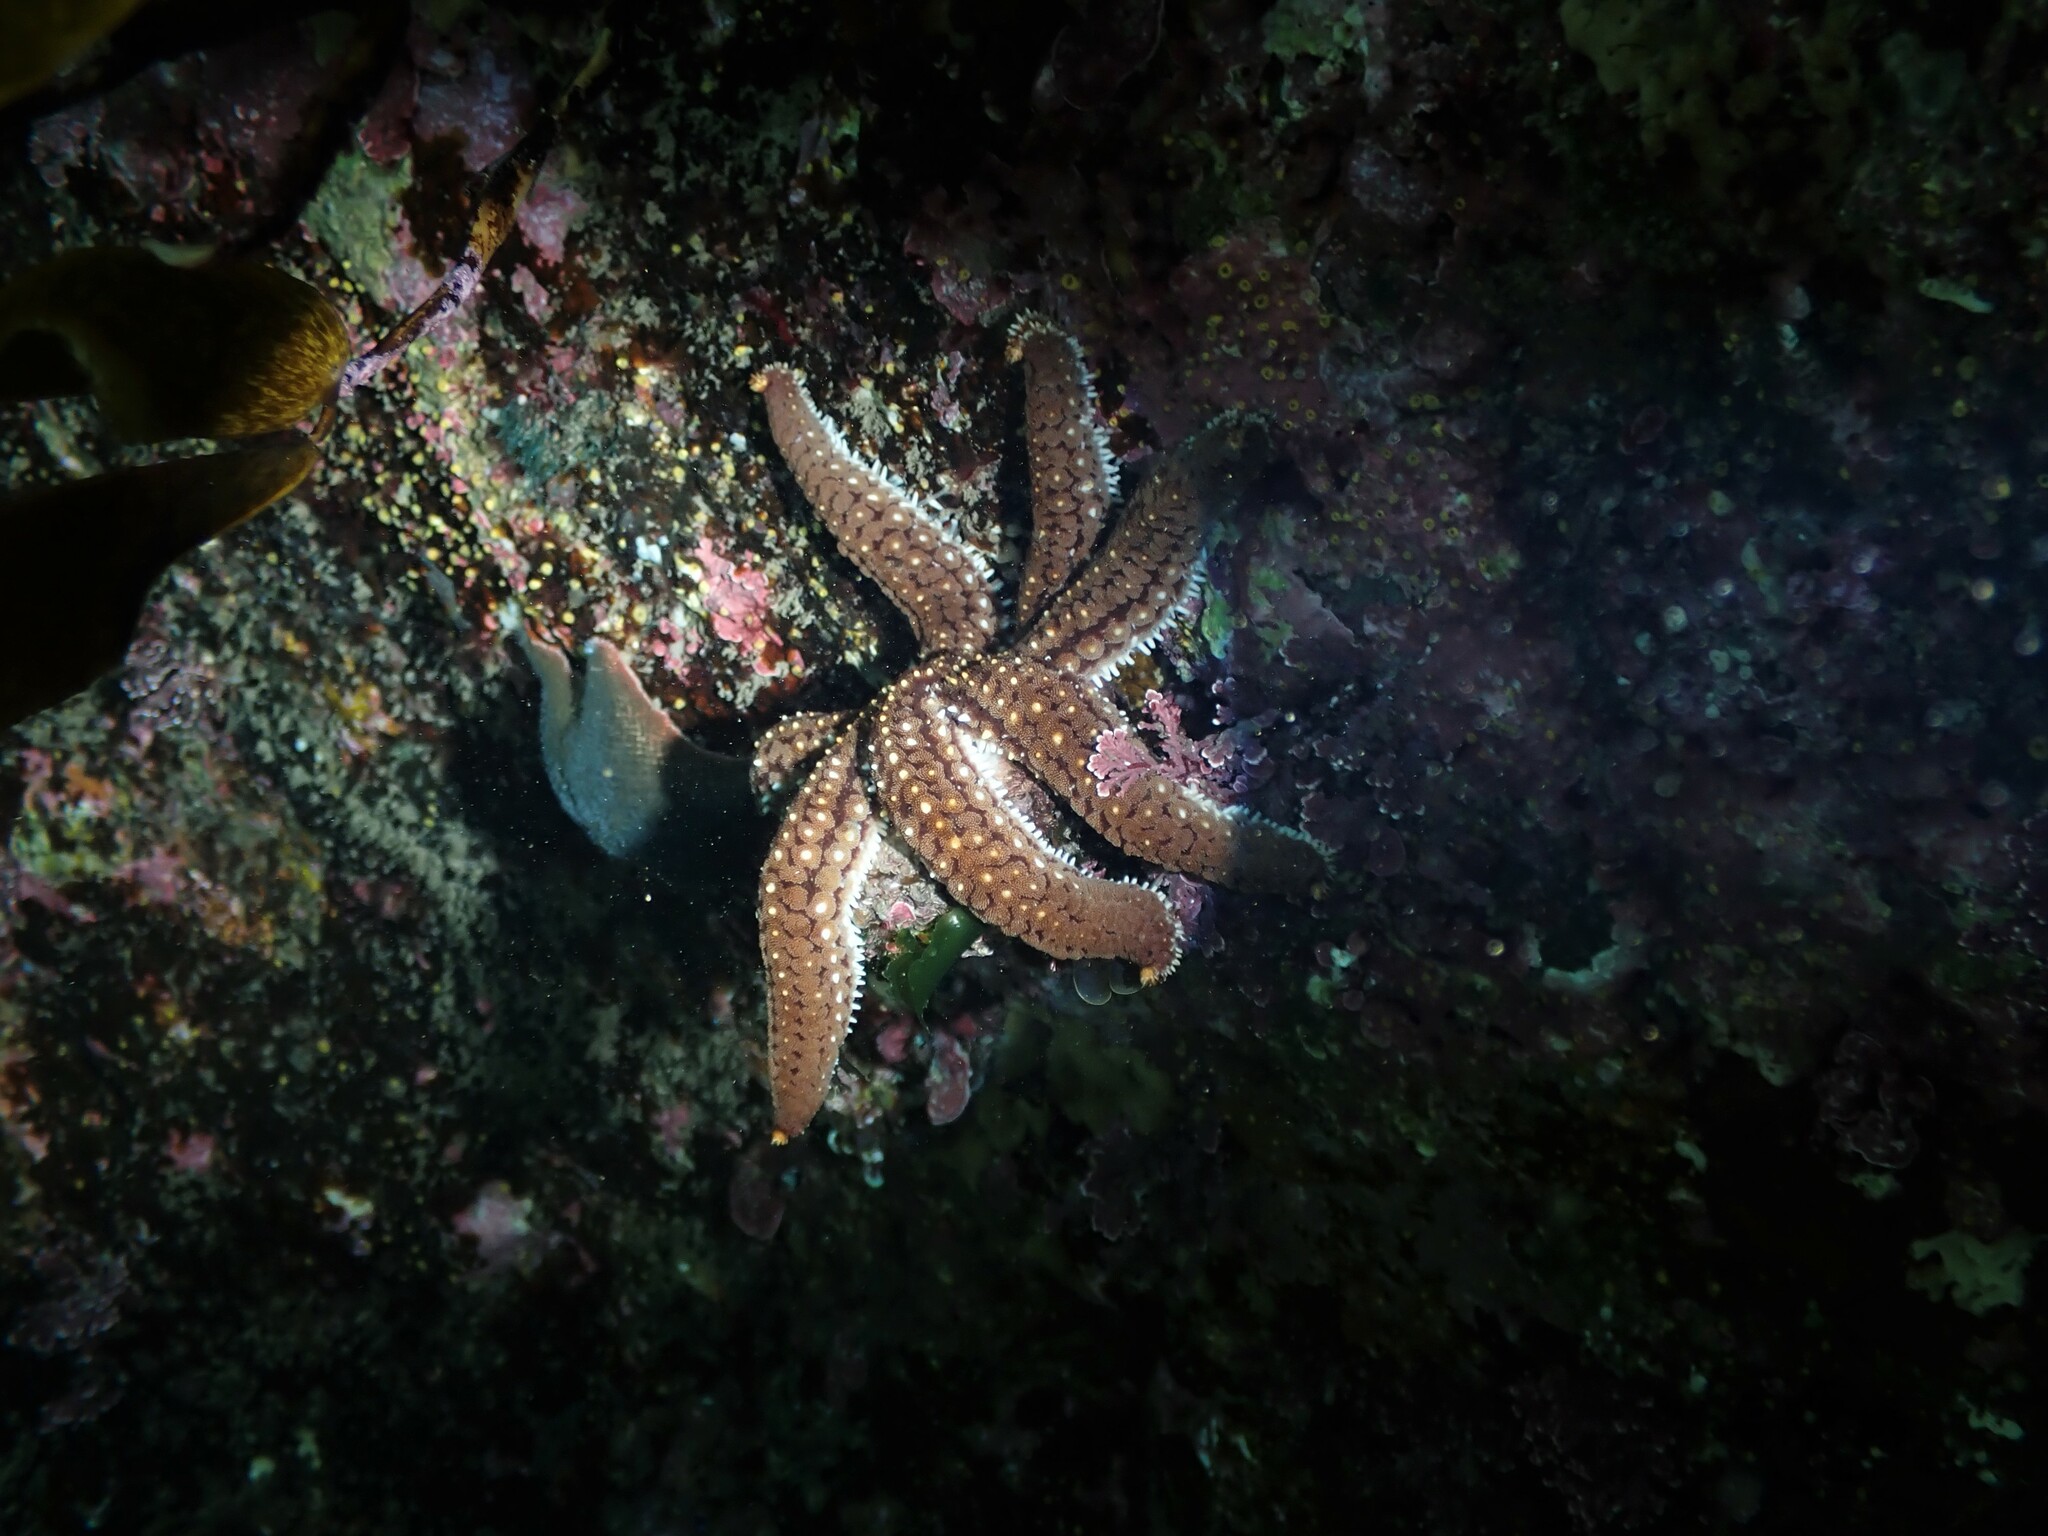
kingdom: Animalia
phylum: Echinodermata
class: Asteroidea
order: Forcipulatida
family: Asteriidae
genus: Astrostole
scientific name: Astrostole scabra
